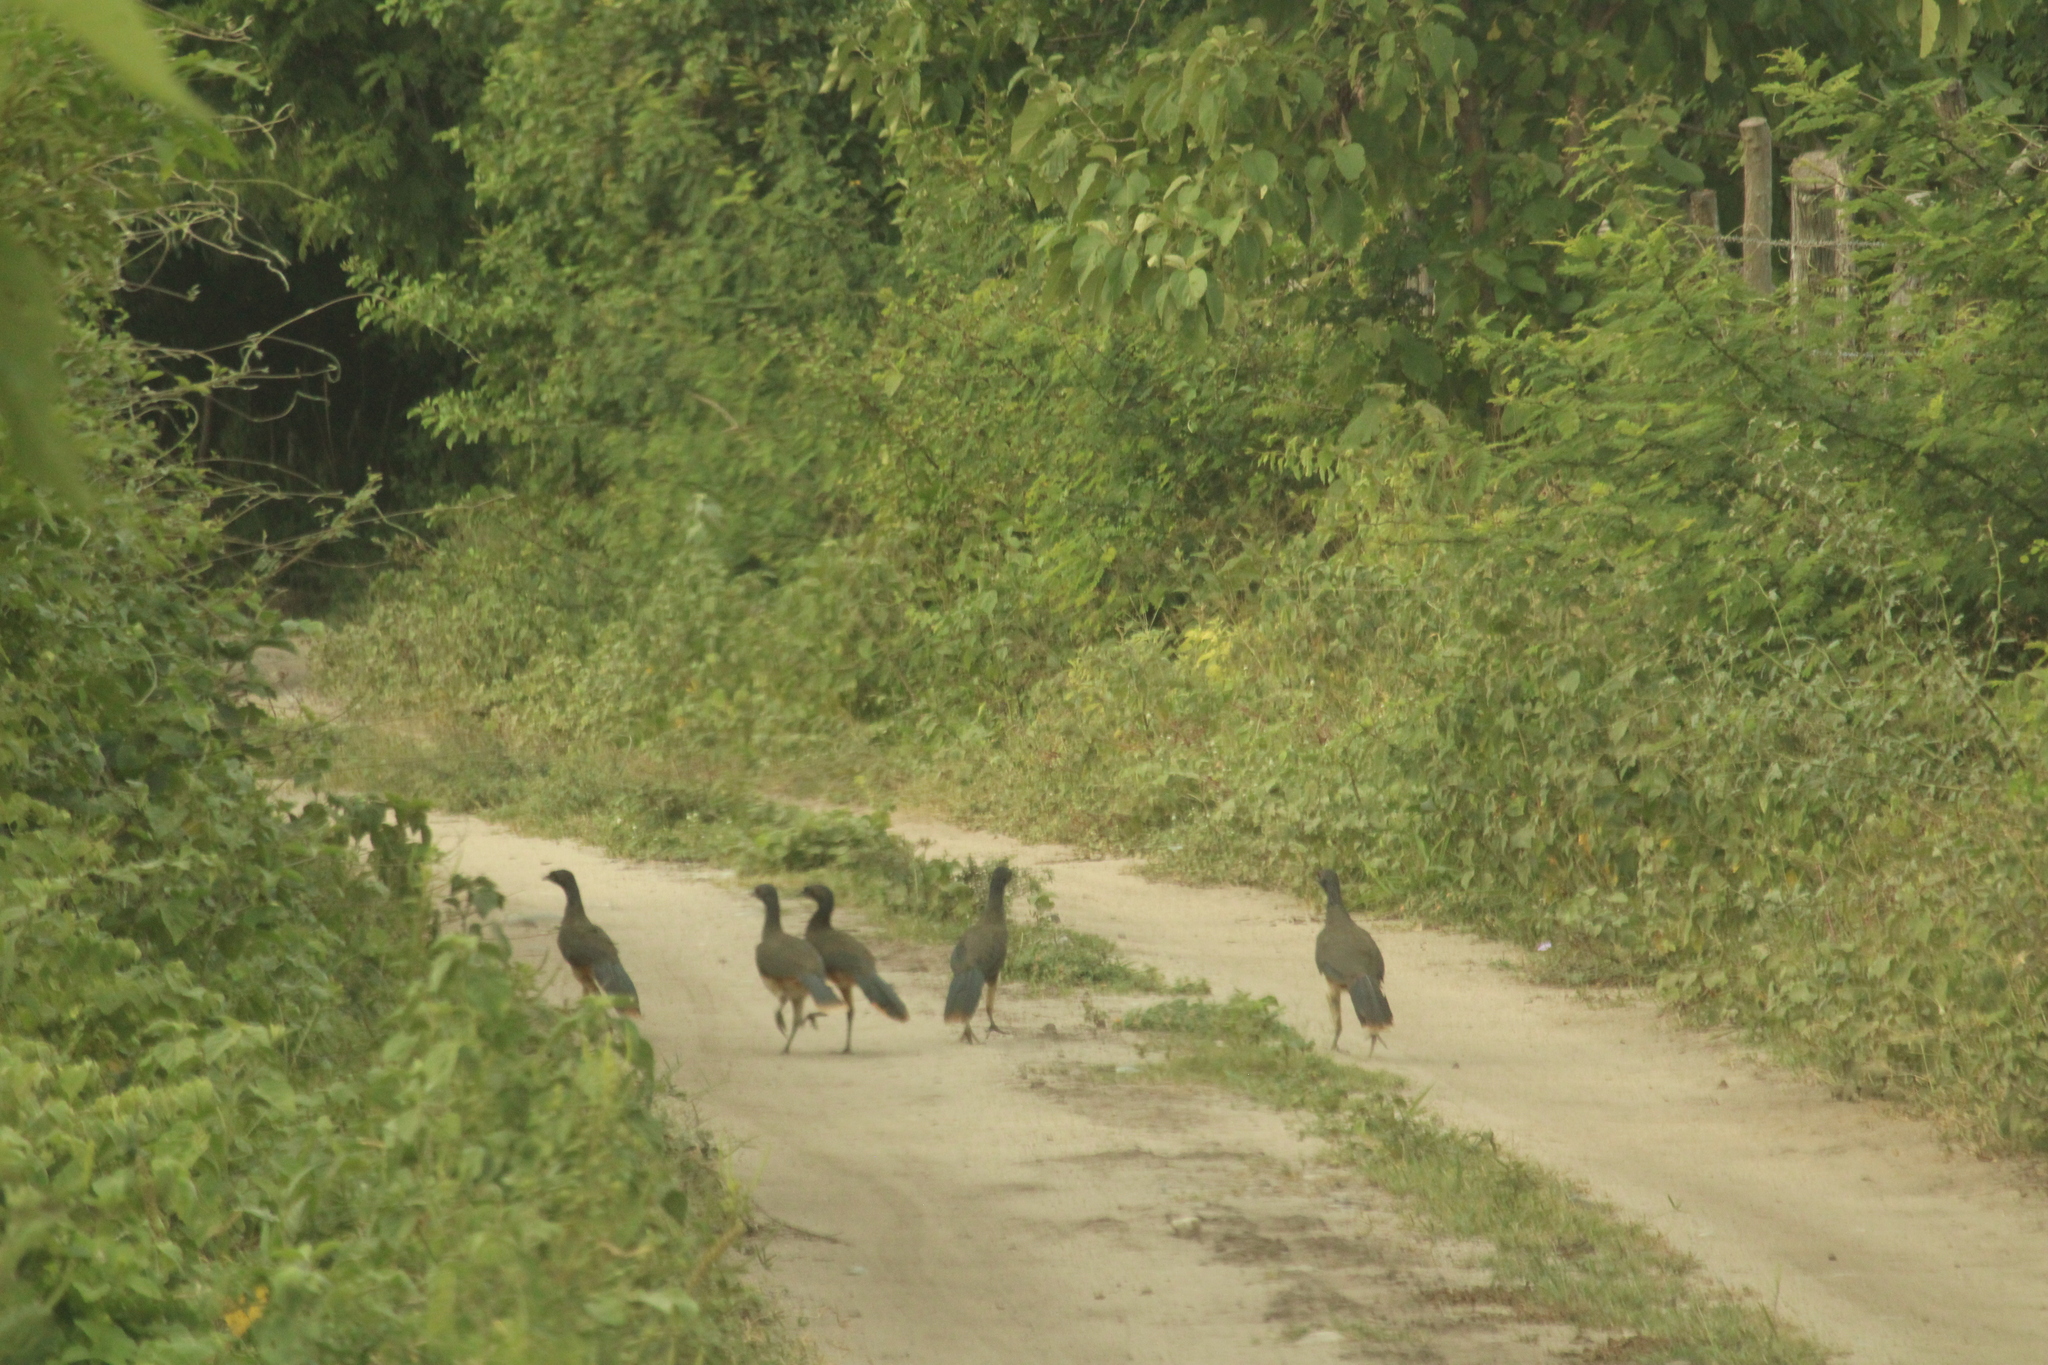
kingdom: Animalia
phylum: Chordata
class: Aves
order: Galliformes
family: Cracidae
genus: Ortalis
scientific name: Ortalis poliocephala
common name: West mexican chachalaca
